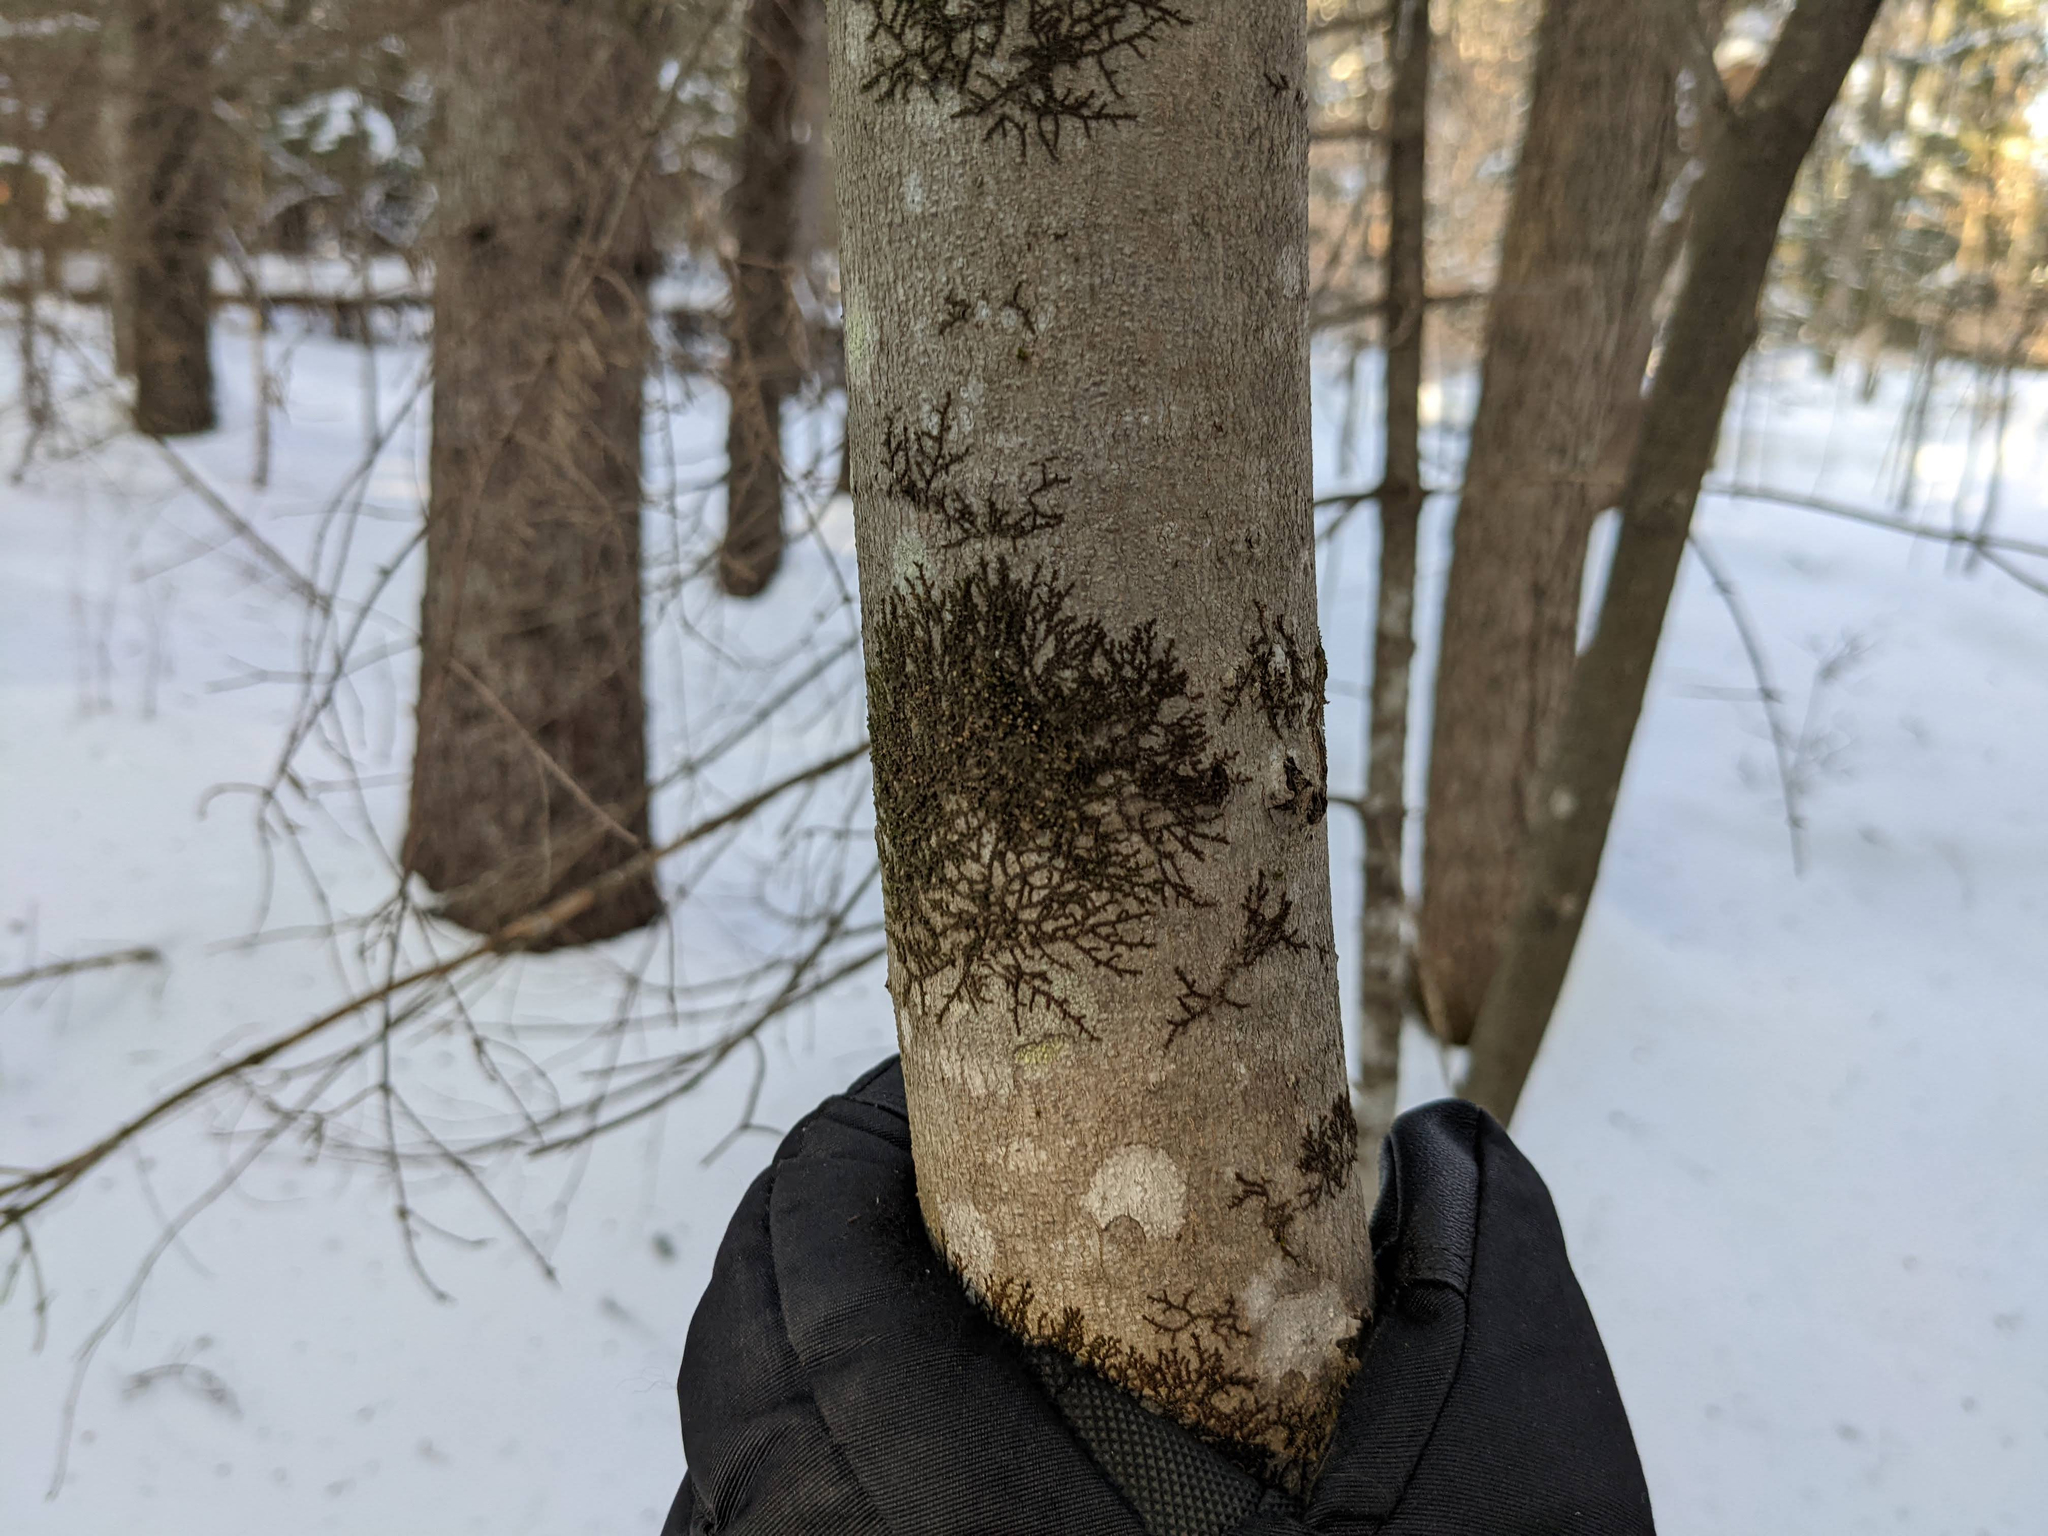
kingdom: Plantae
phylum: Marchantiophyta
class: Jungermanniopsida
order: Porellales
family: Frullaniaceae
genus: Frullania
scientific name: Frullania eboracensis
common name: New york scalewort
